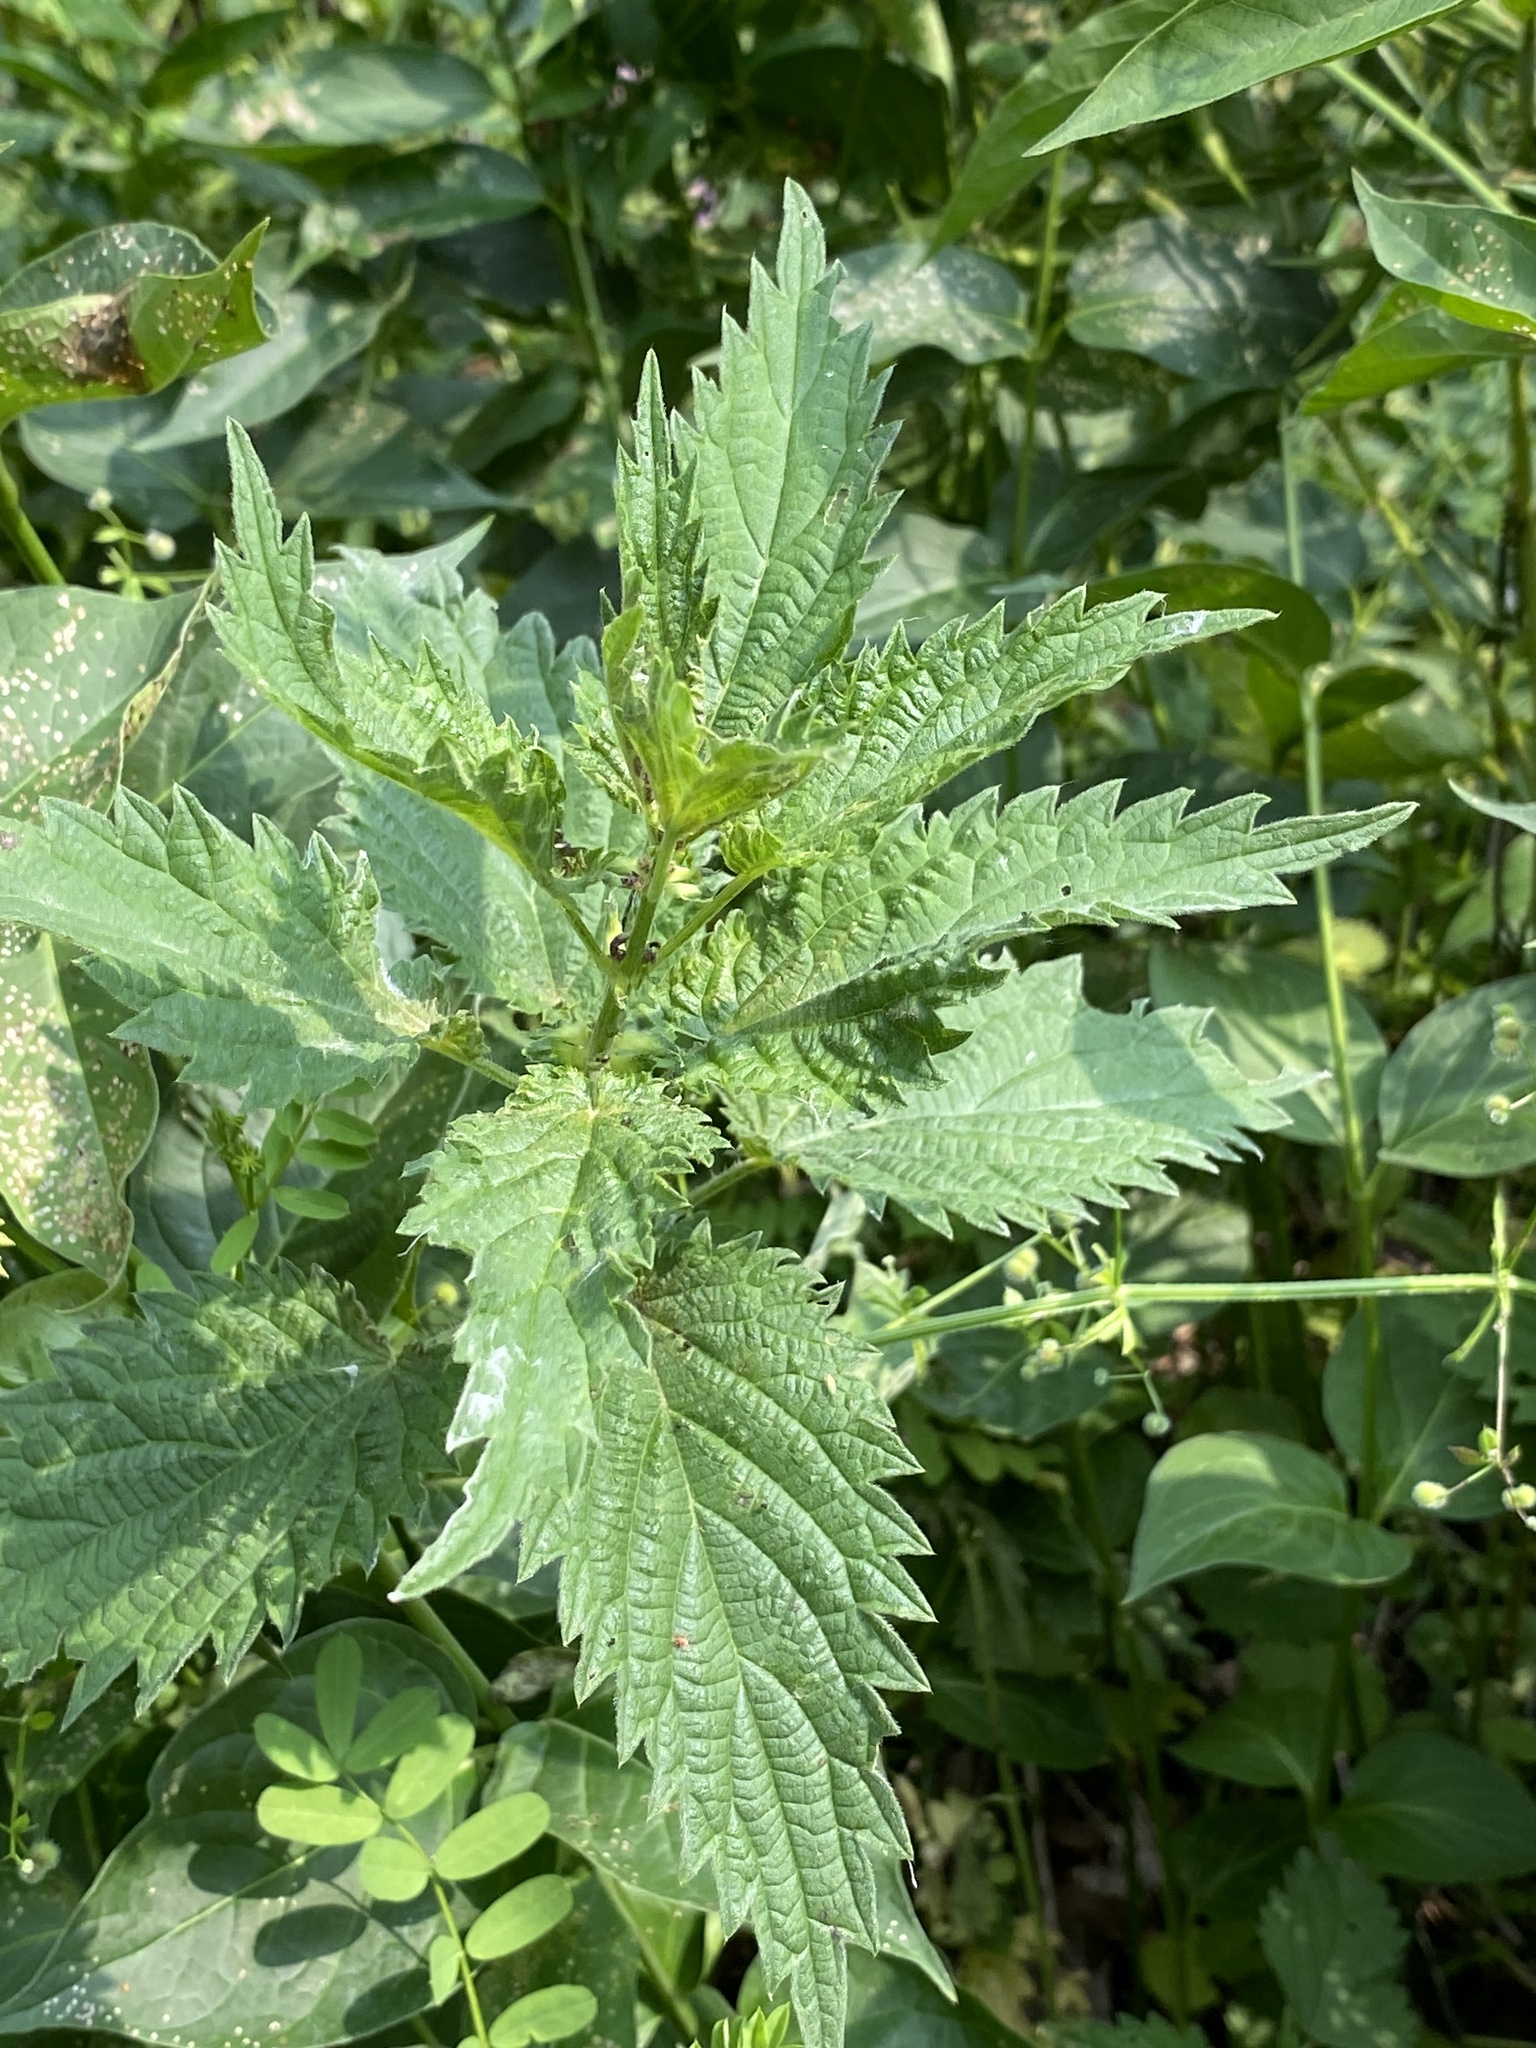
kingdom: Plantae
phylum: Tracheophyta
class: Magnoliopsida
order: Rosales
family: Urticaceae
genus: Urtica
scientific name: Urtica gracilis
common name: Slender stinging nettle
